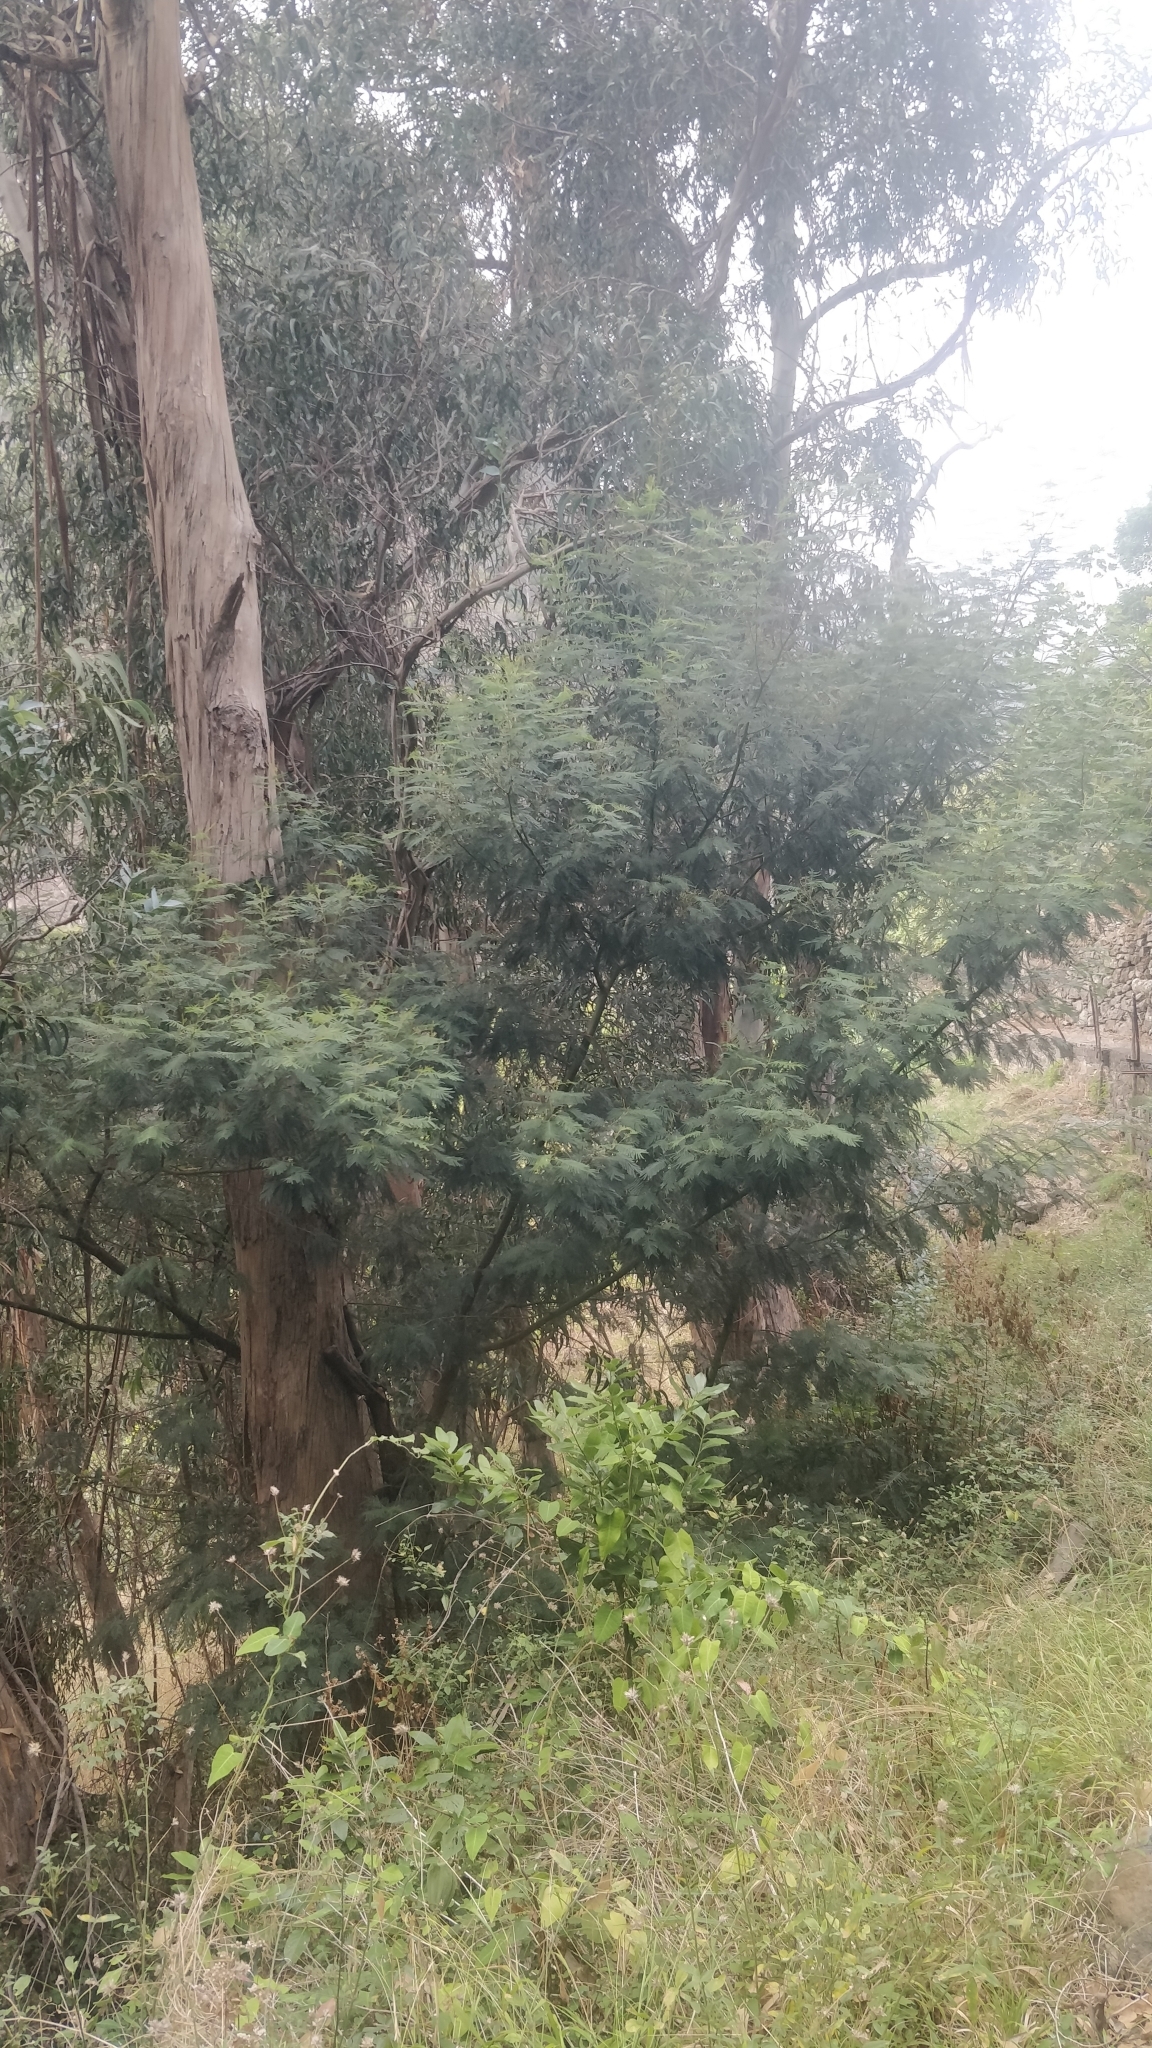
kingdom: Plantae
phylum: Tracheophyta
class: Magnoliopsida
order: Fabales
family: Fabaceae
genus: Acacia
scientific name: Acacia mearnsii
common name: Black wattle
